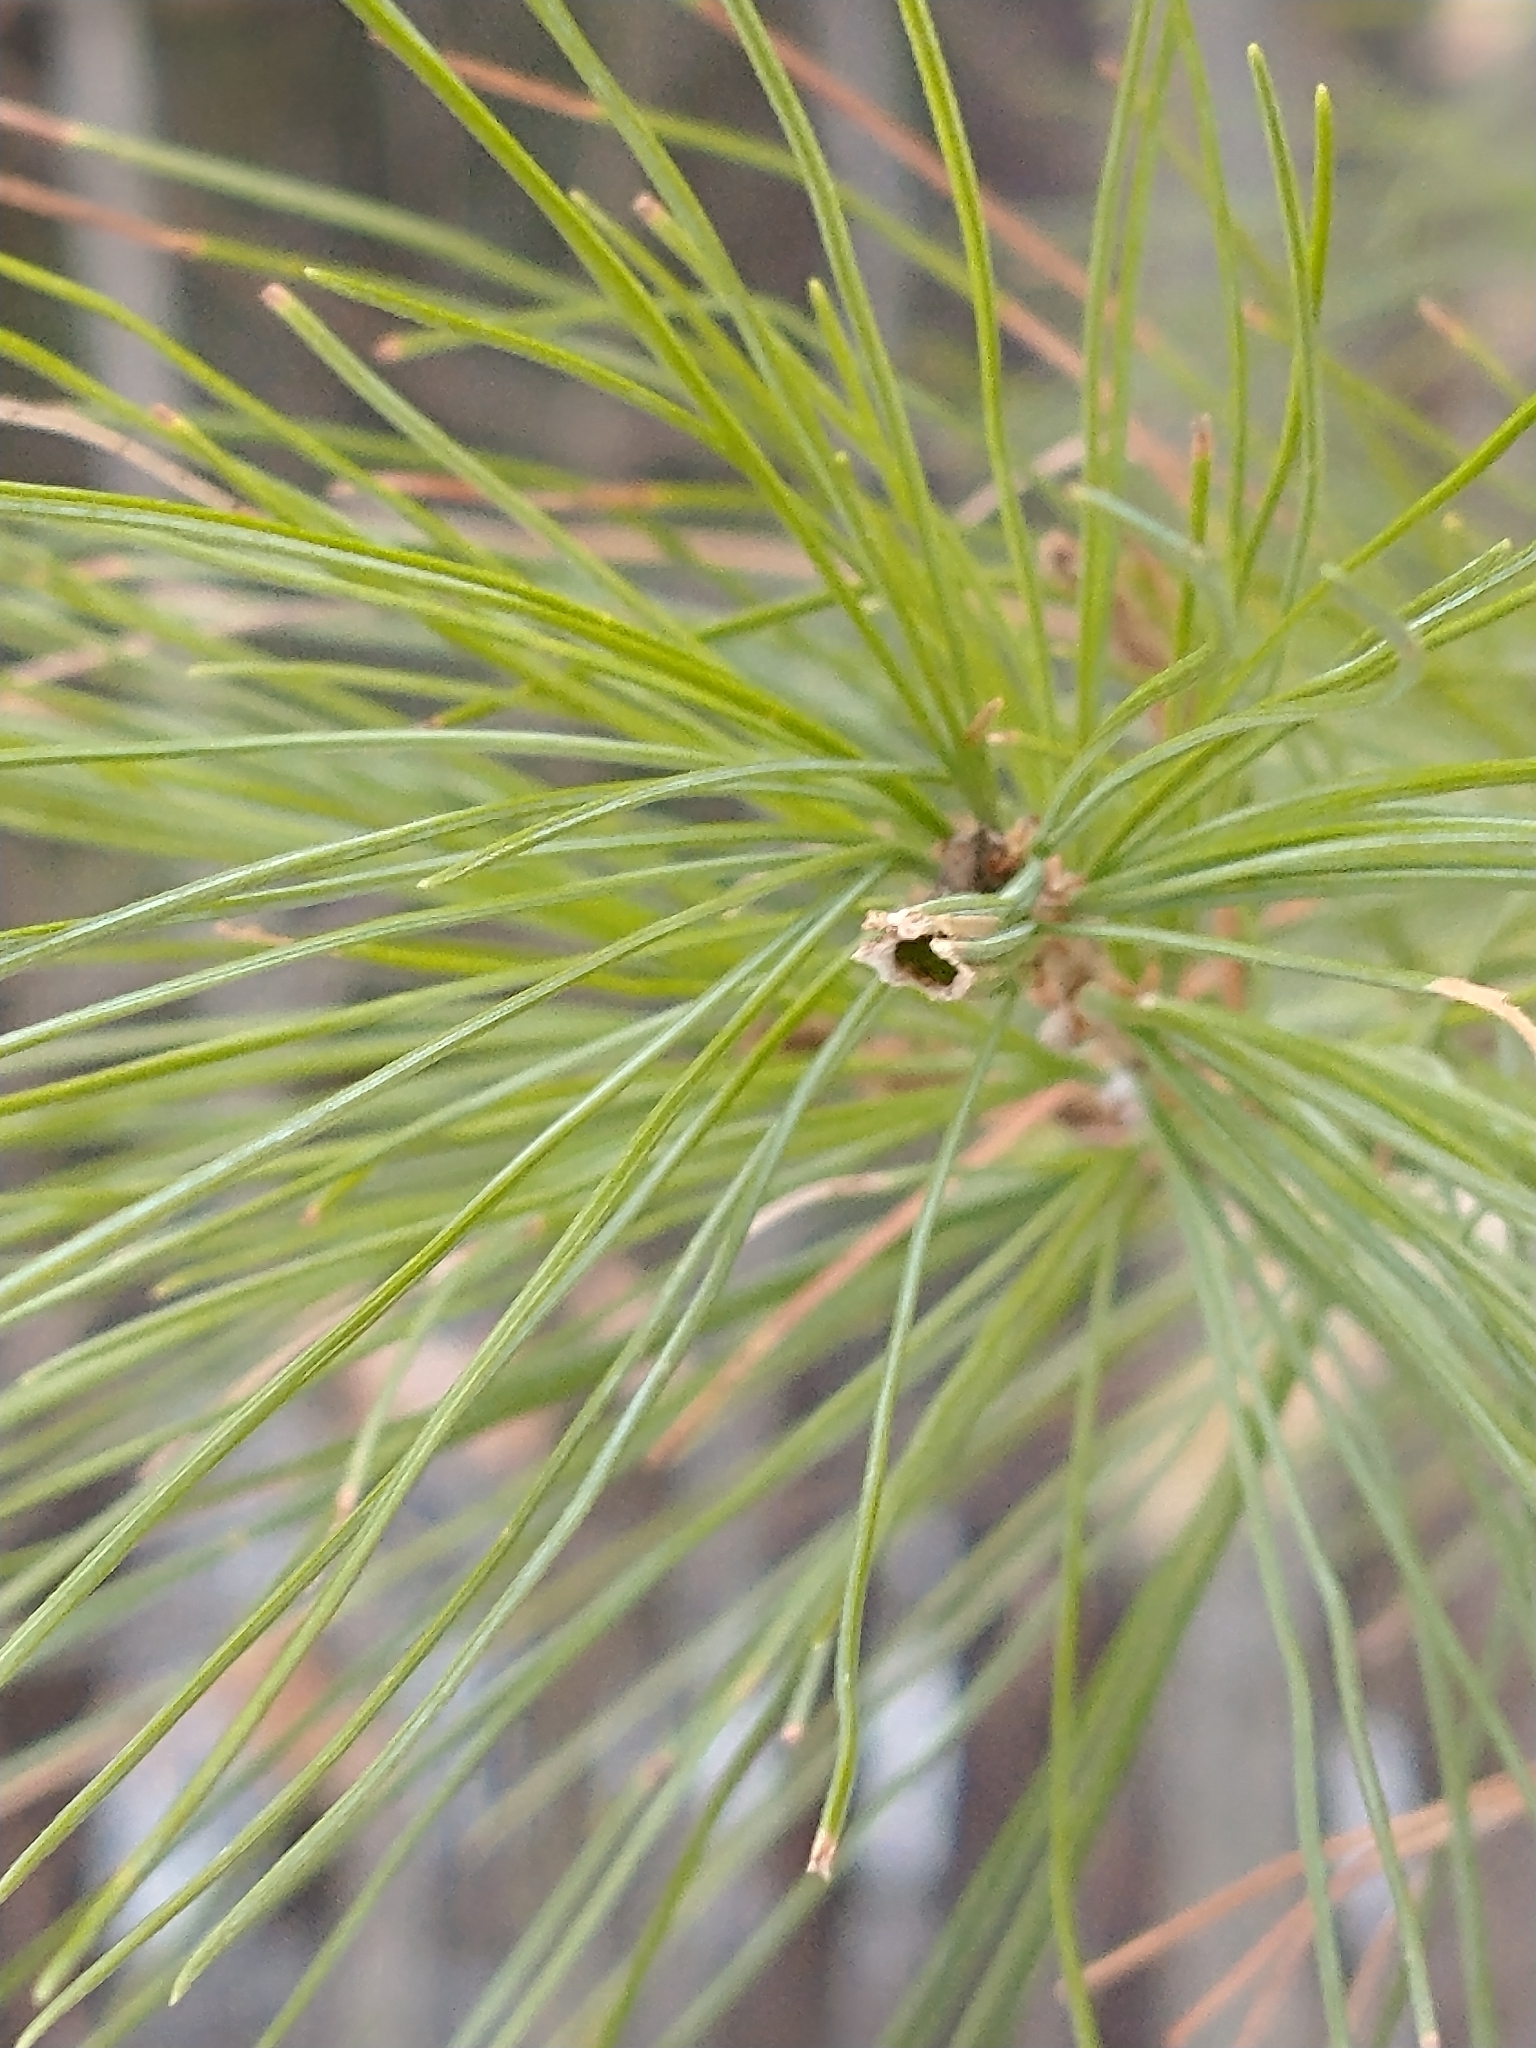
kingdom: Animalia
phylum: Arthropoda
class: Insecta
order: Lepidoptera
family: Tortricidae
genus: Argyrotaenia
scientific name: Argyrotaenia pinatubana
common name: Pine tube moth
